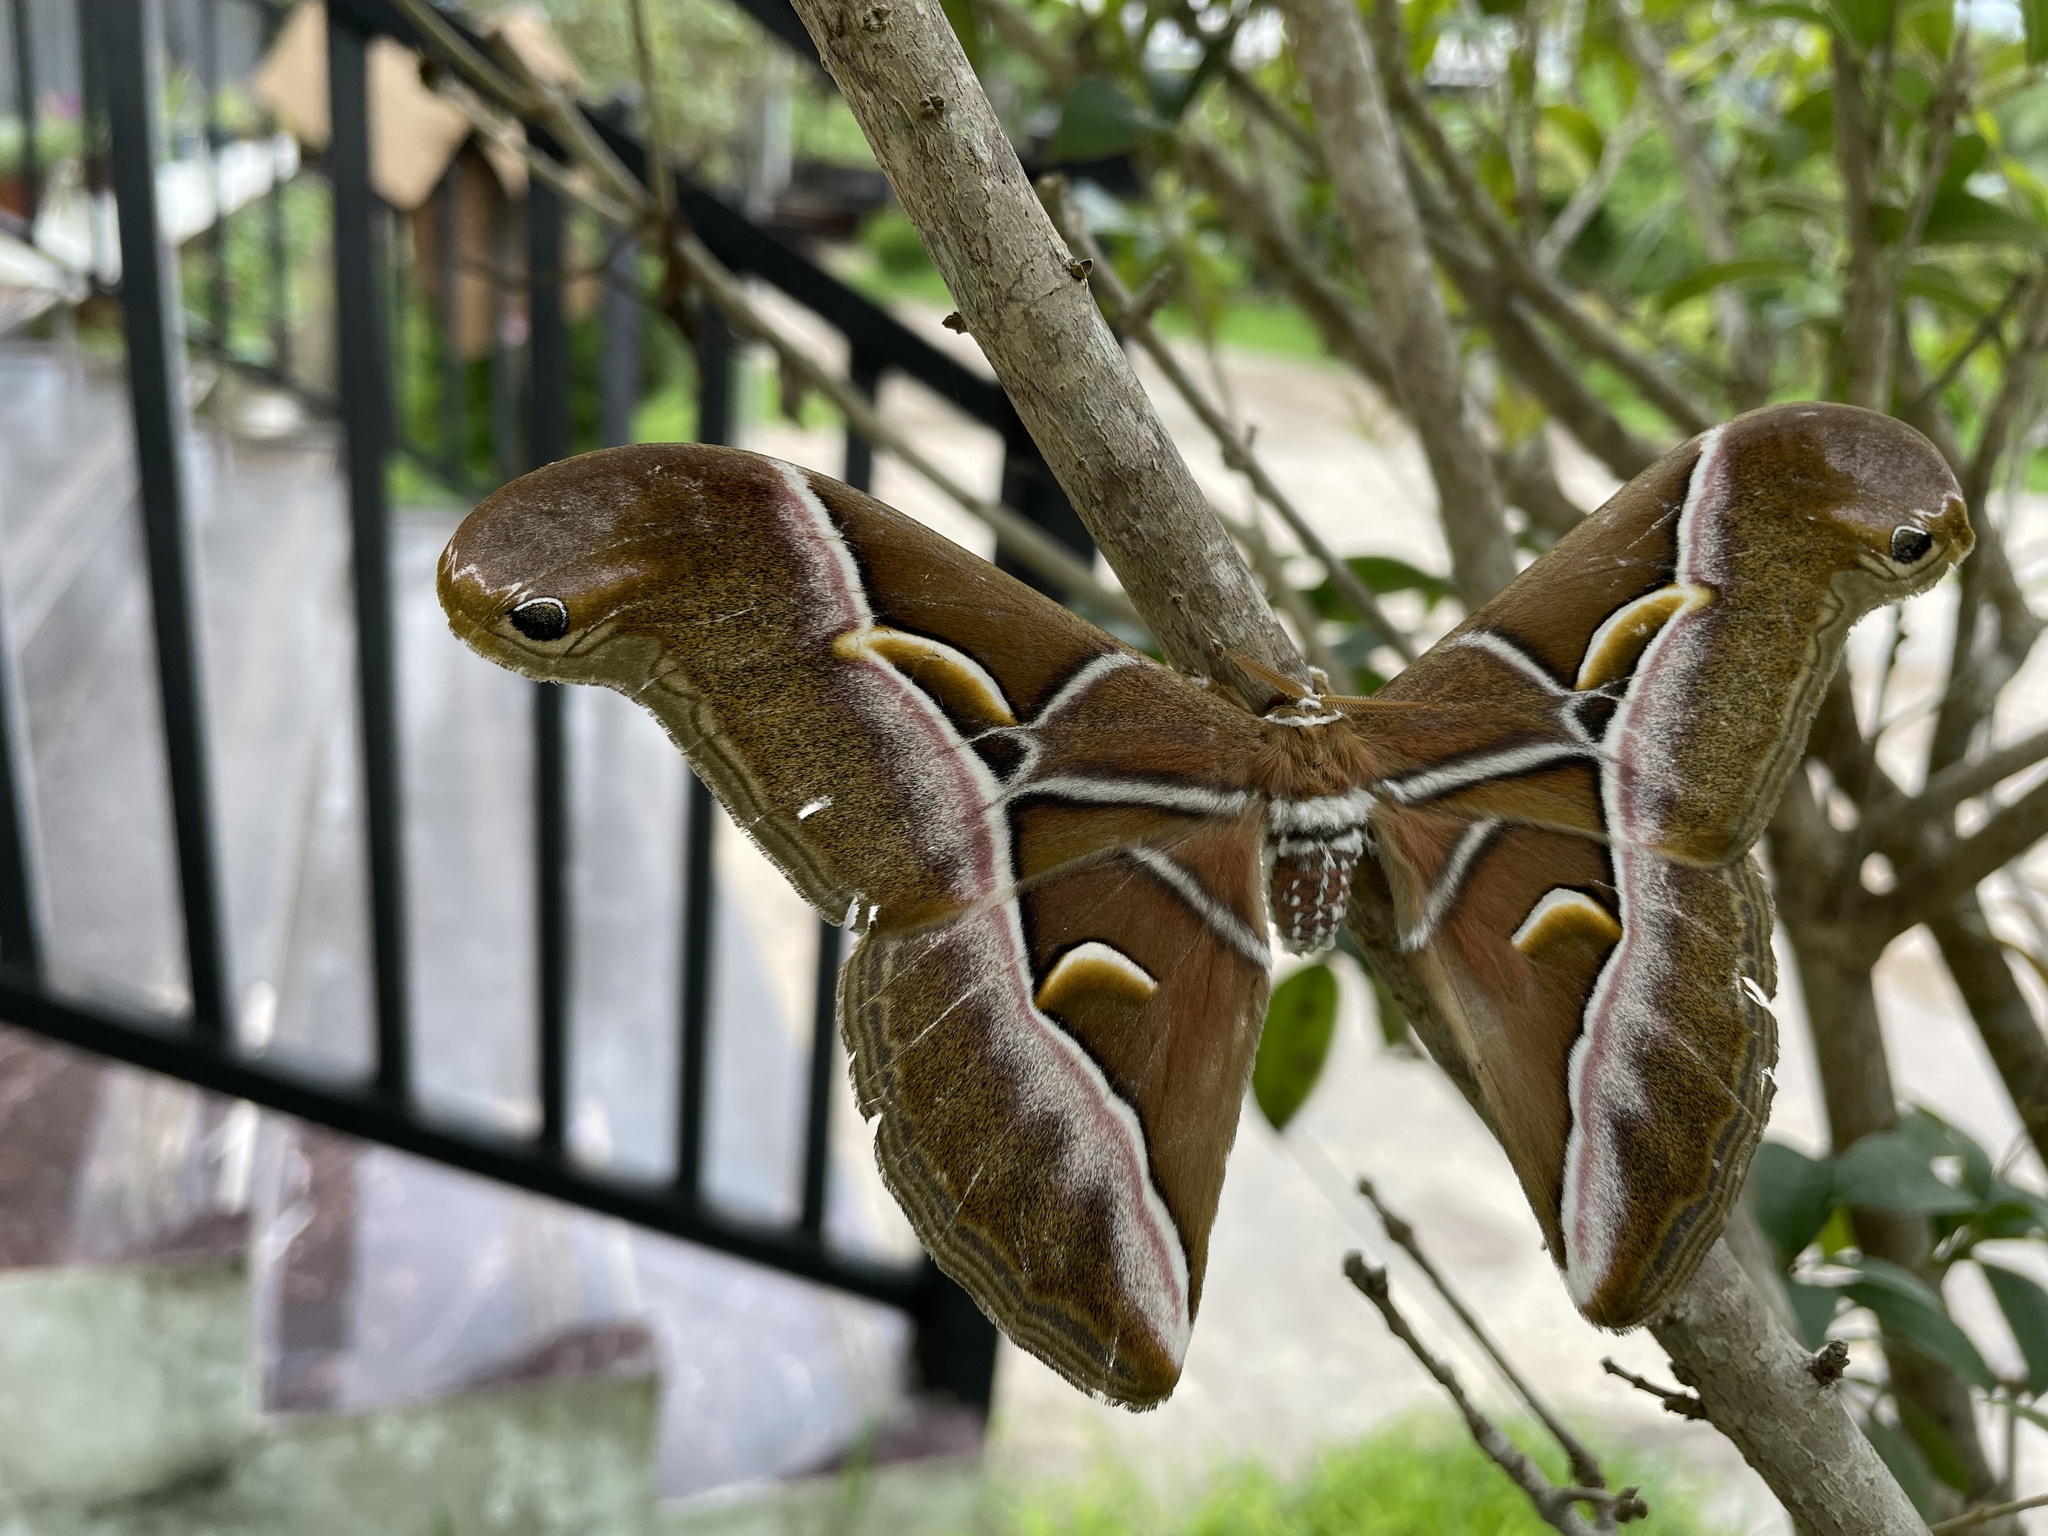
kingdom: Animalia
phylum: Arthropoda
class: Insecta
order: Lepidoptera
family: Saturniidae
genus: Samia
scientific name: Samia wangi
